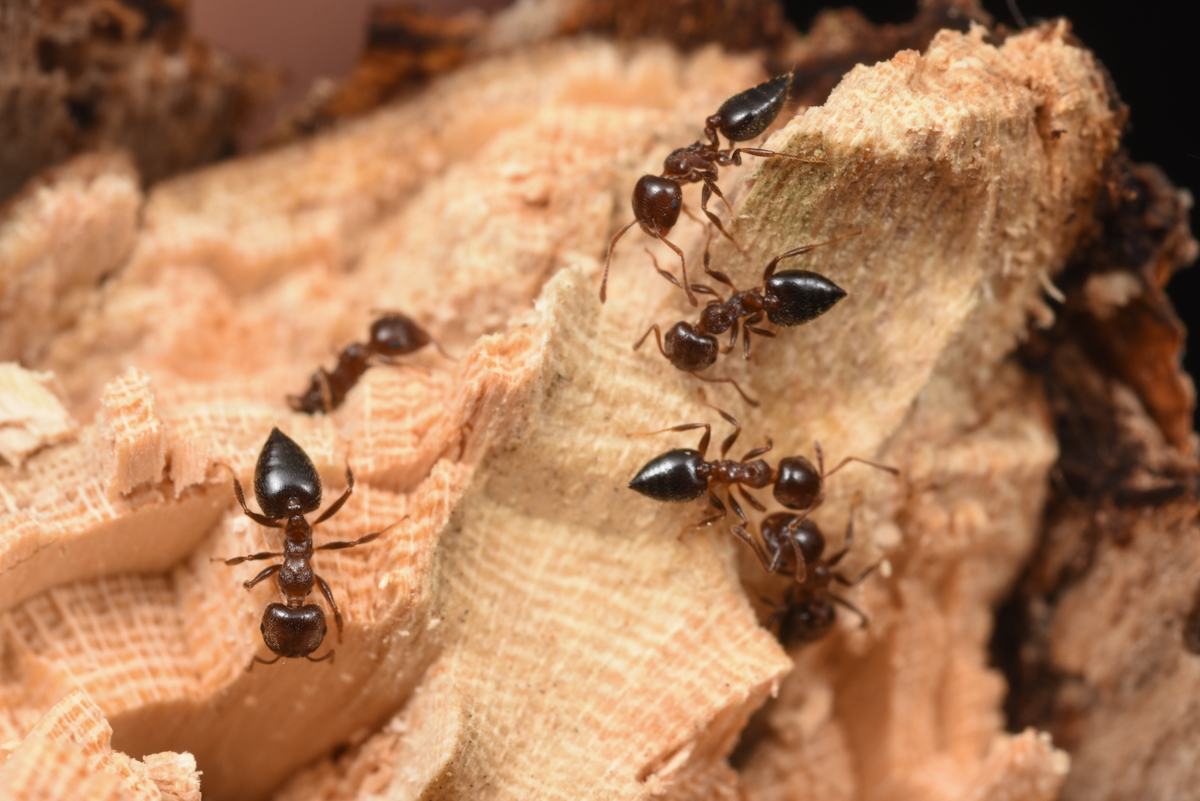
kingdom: Animalia
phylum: Arthropoda
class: Insecta
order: Hymenoptera
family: Formicidae
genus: Crematogaster
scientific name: Crematogaster matsumurai
